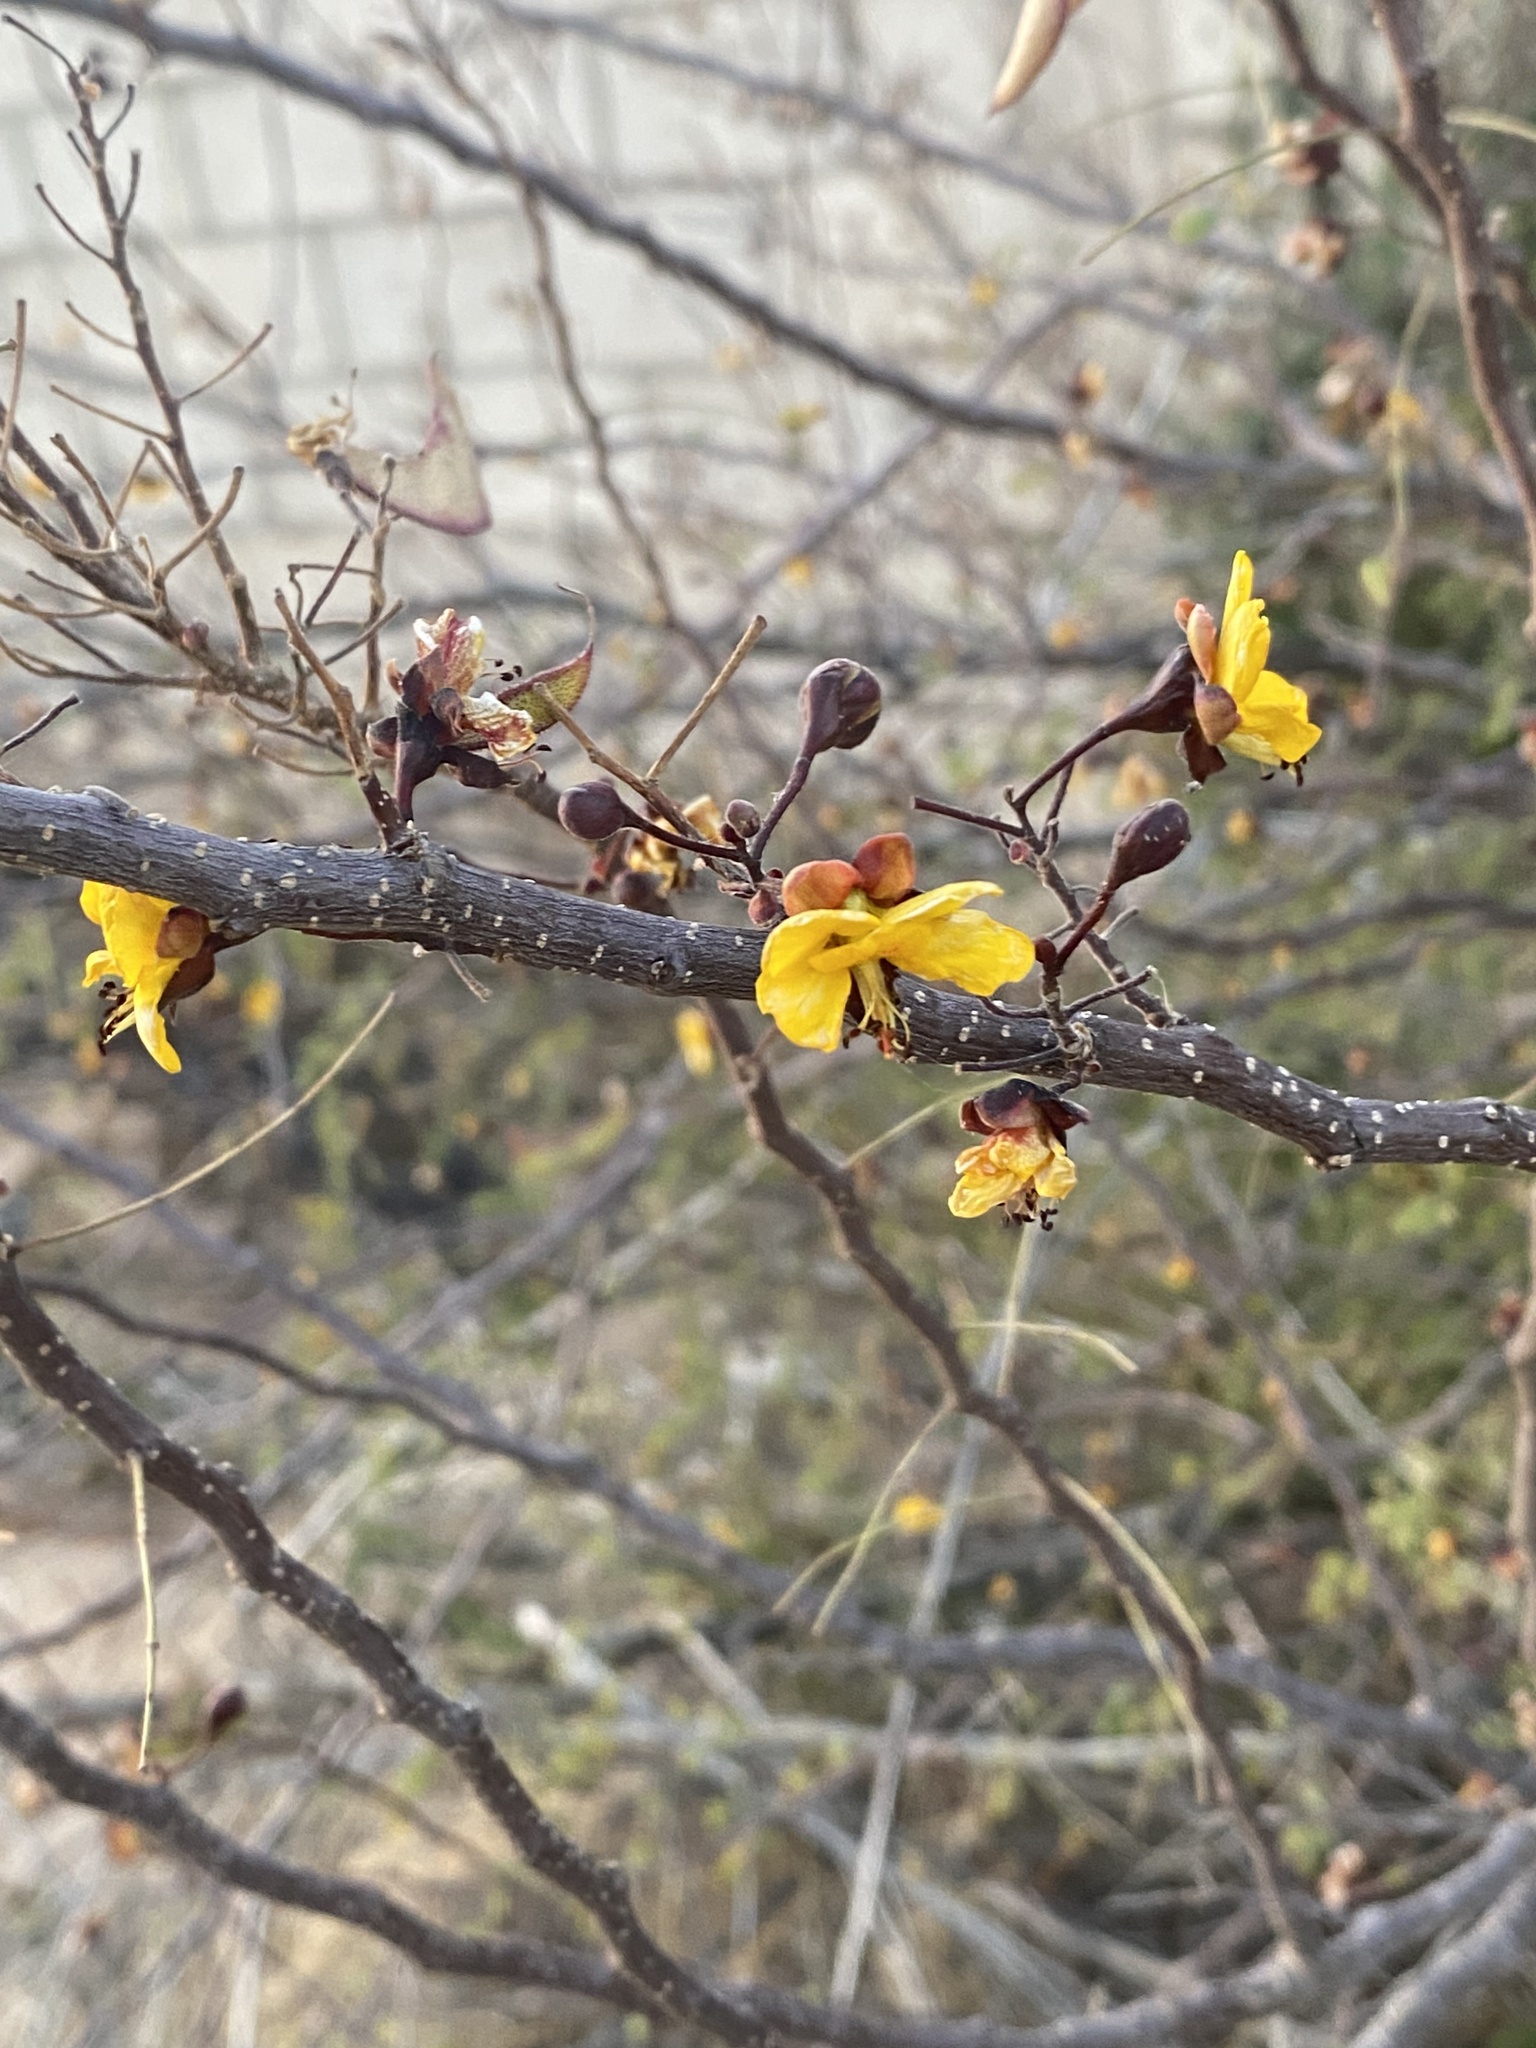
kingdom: Plantae
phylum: Tracheophyta
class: Magnoliopsida
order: Fabales
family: Fabaceae
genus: Erythrostemon
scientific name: Erythrostemon palmeri
